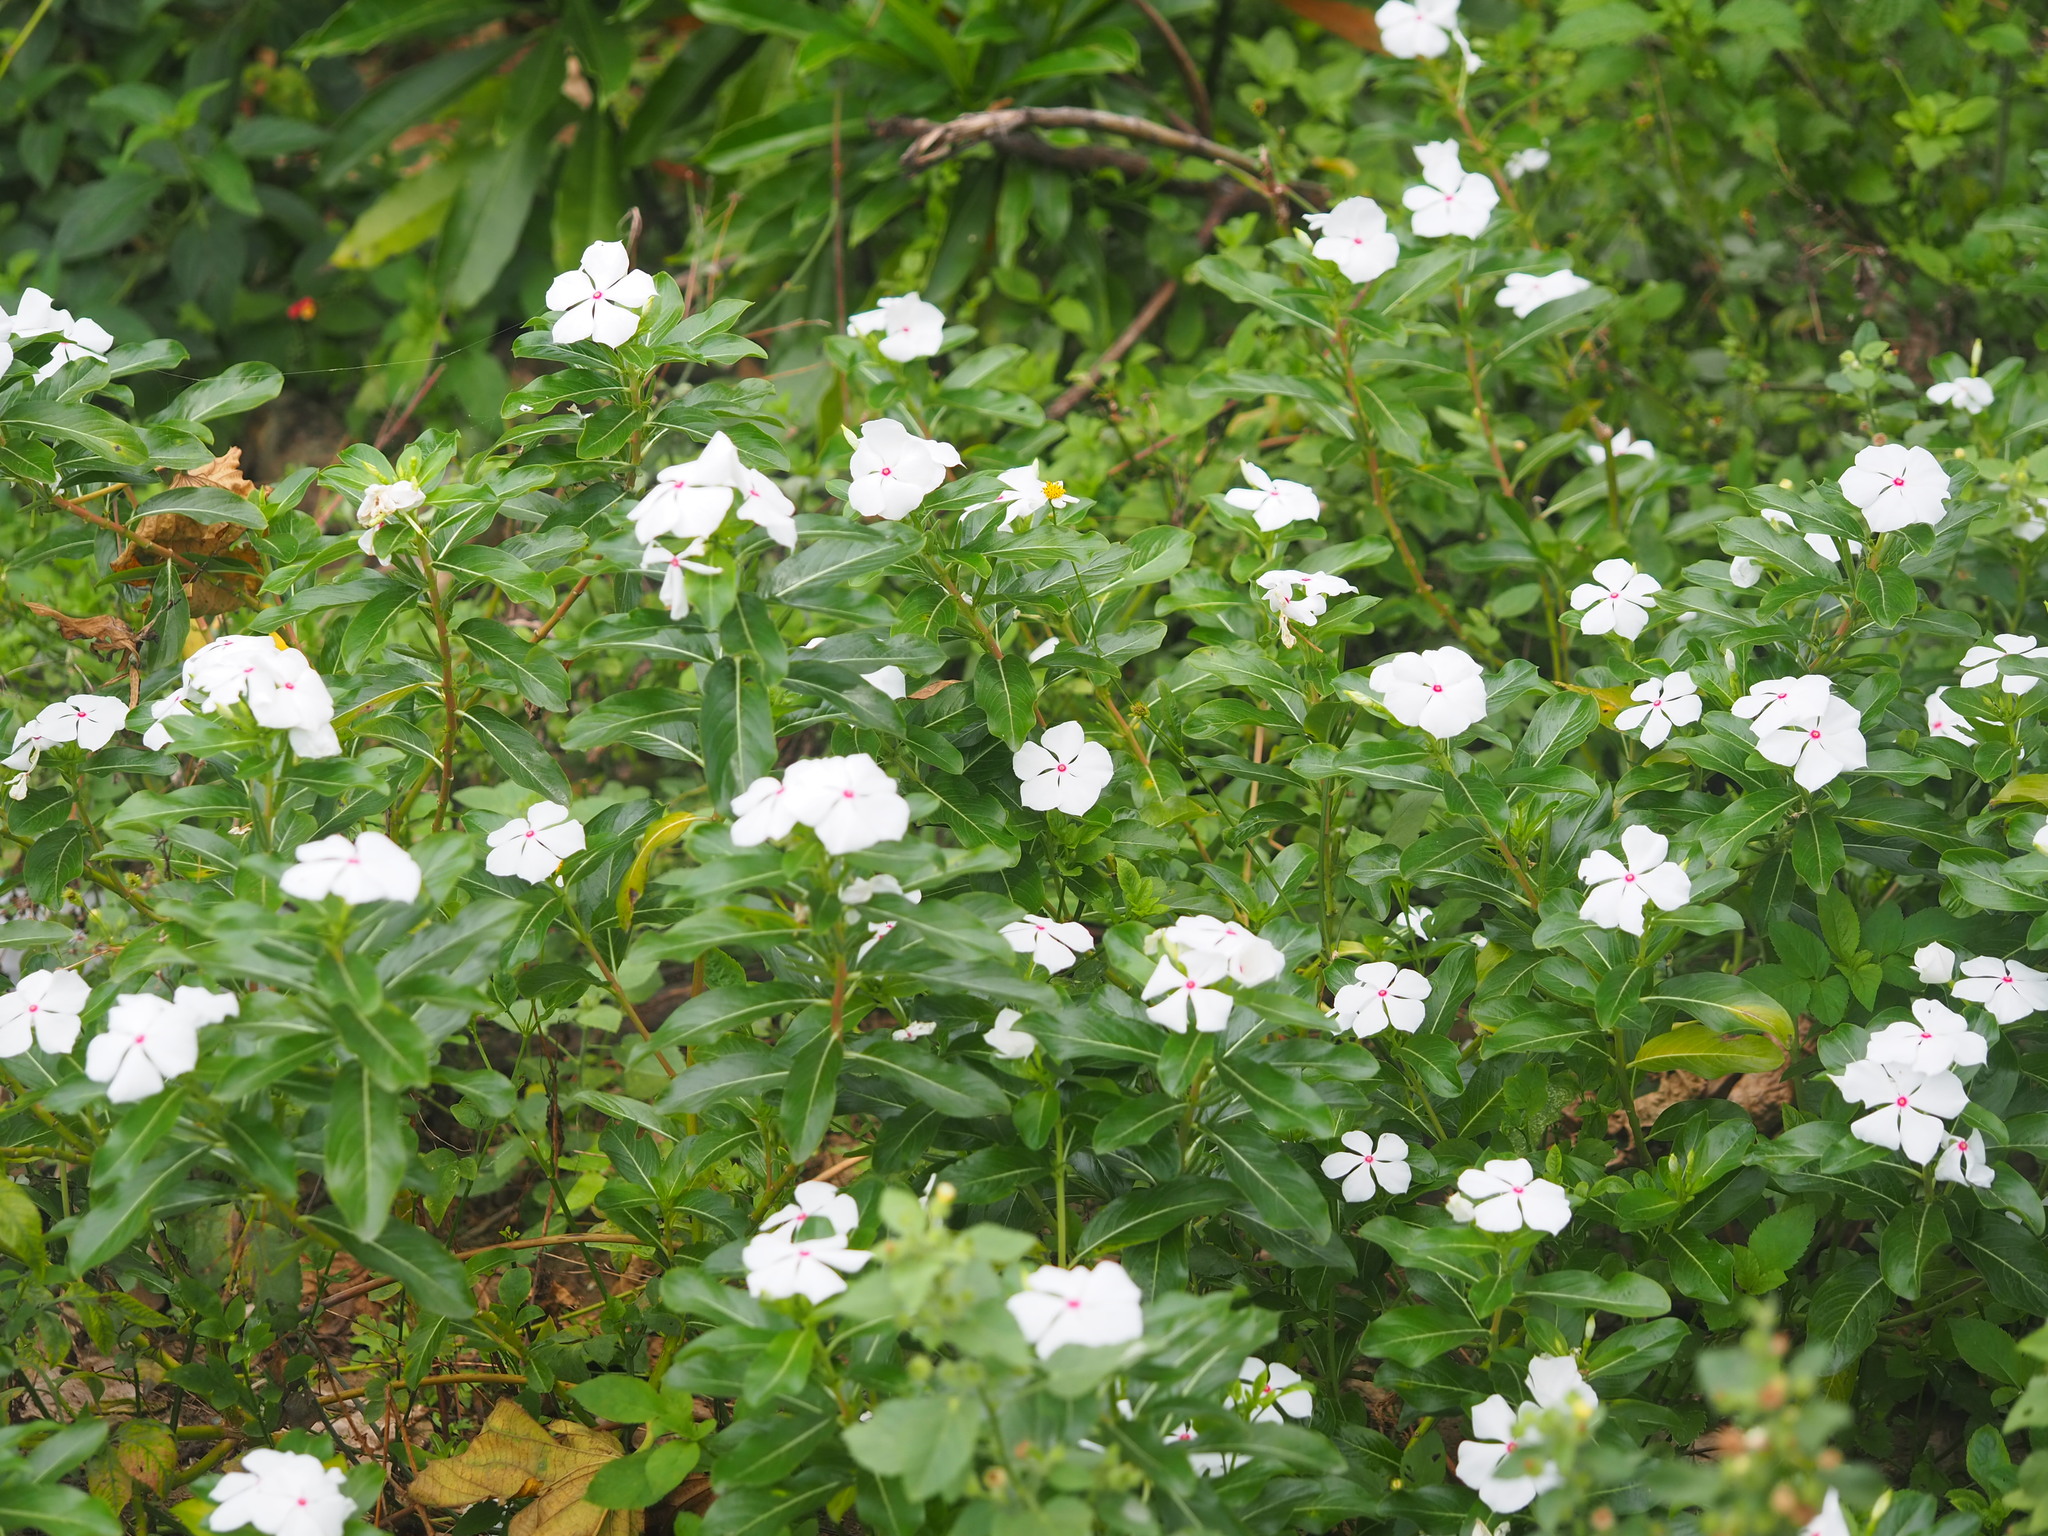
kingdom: Plantae
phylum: Tracheophyta
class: Magnoliopsida
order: Gentianales
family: Apocynaceae
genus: Catharanthus
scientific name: Catharanthus roseus
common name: Madagascar periwinkle
